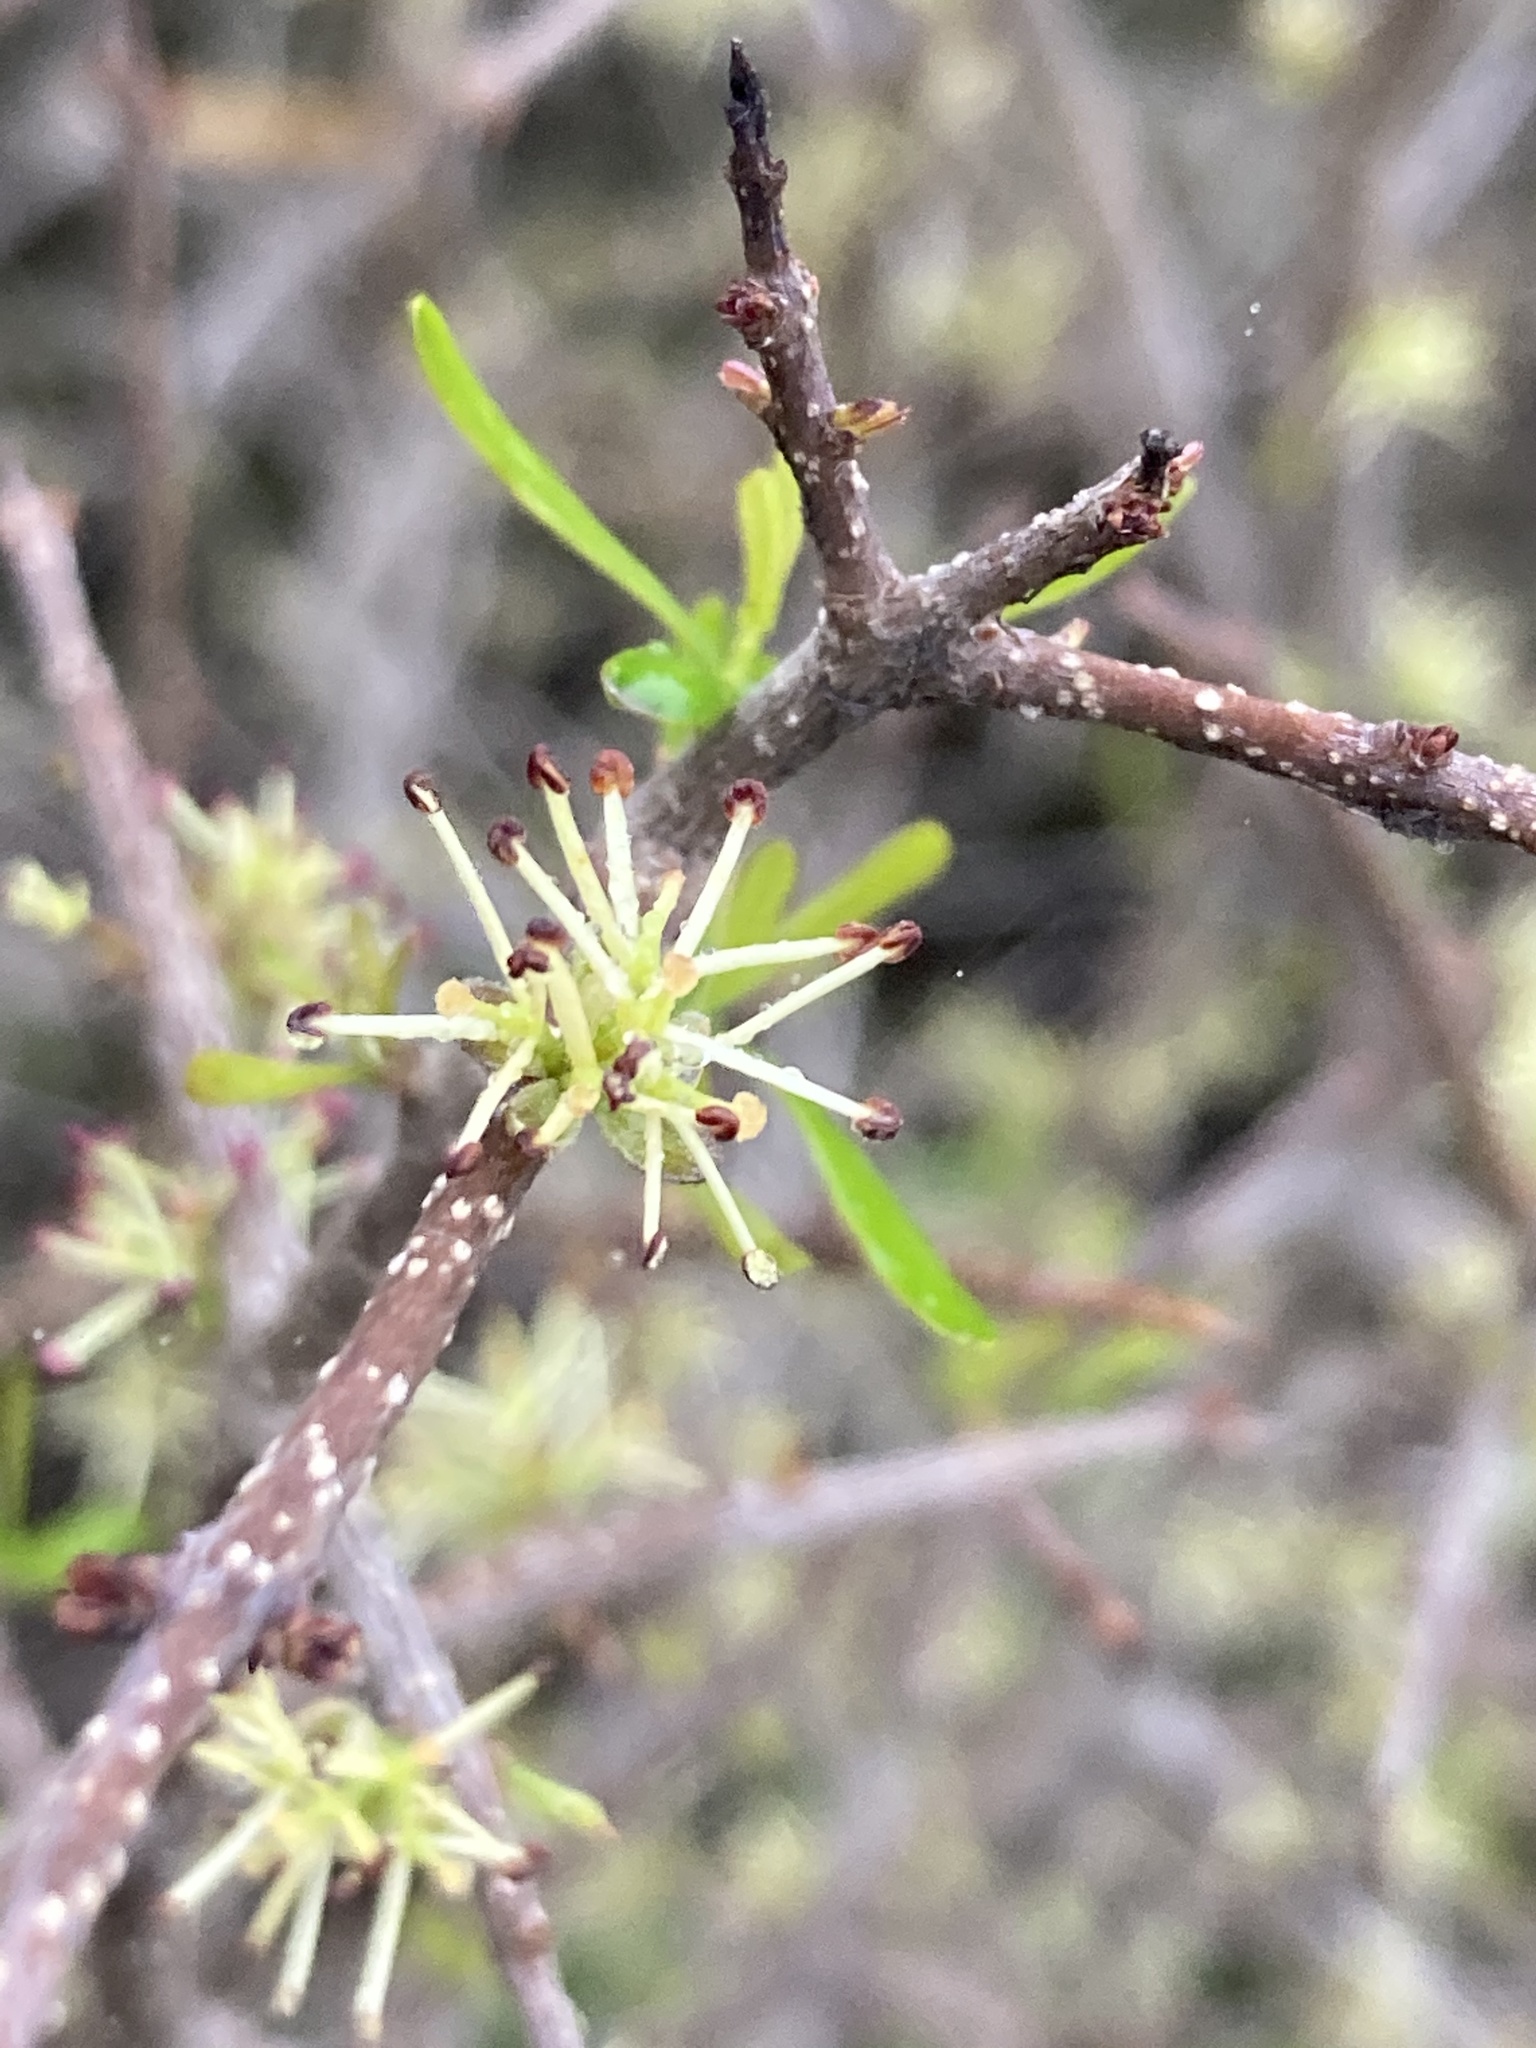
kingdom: Plantae
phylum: Tracheophyta
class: Magnoliopsida
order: Lamiales
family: Oleaceae
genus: Forestiera
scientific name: Forestiera angustifolia
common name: Elbowbush
